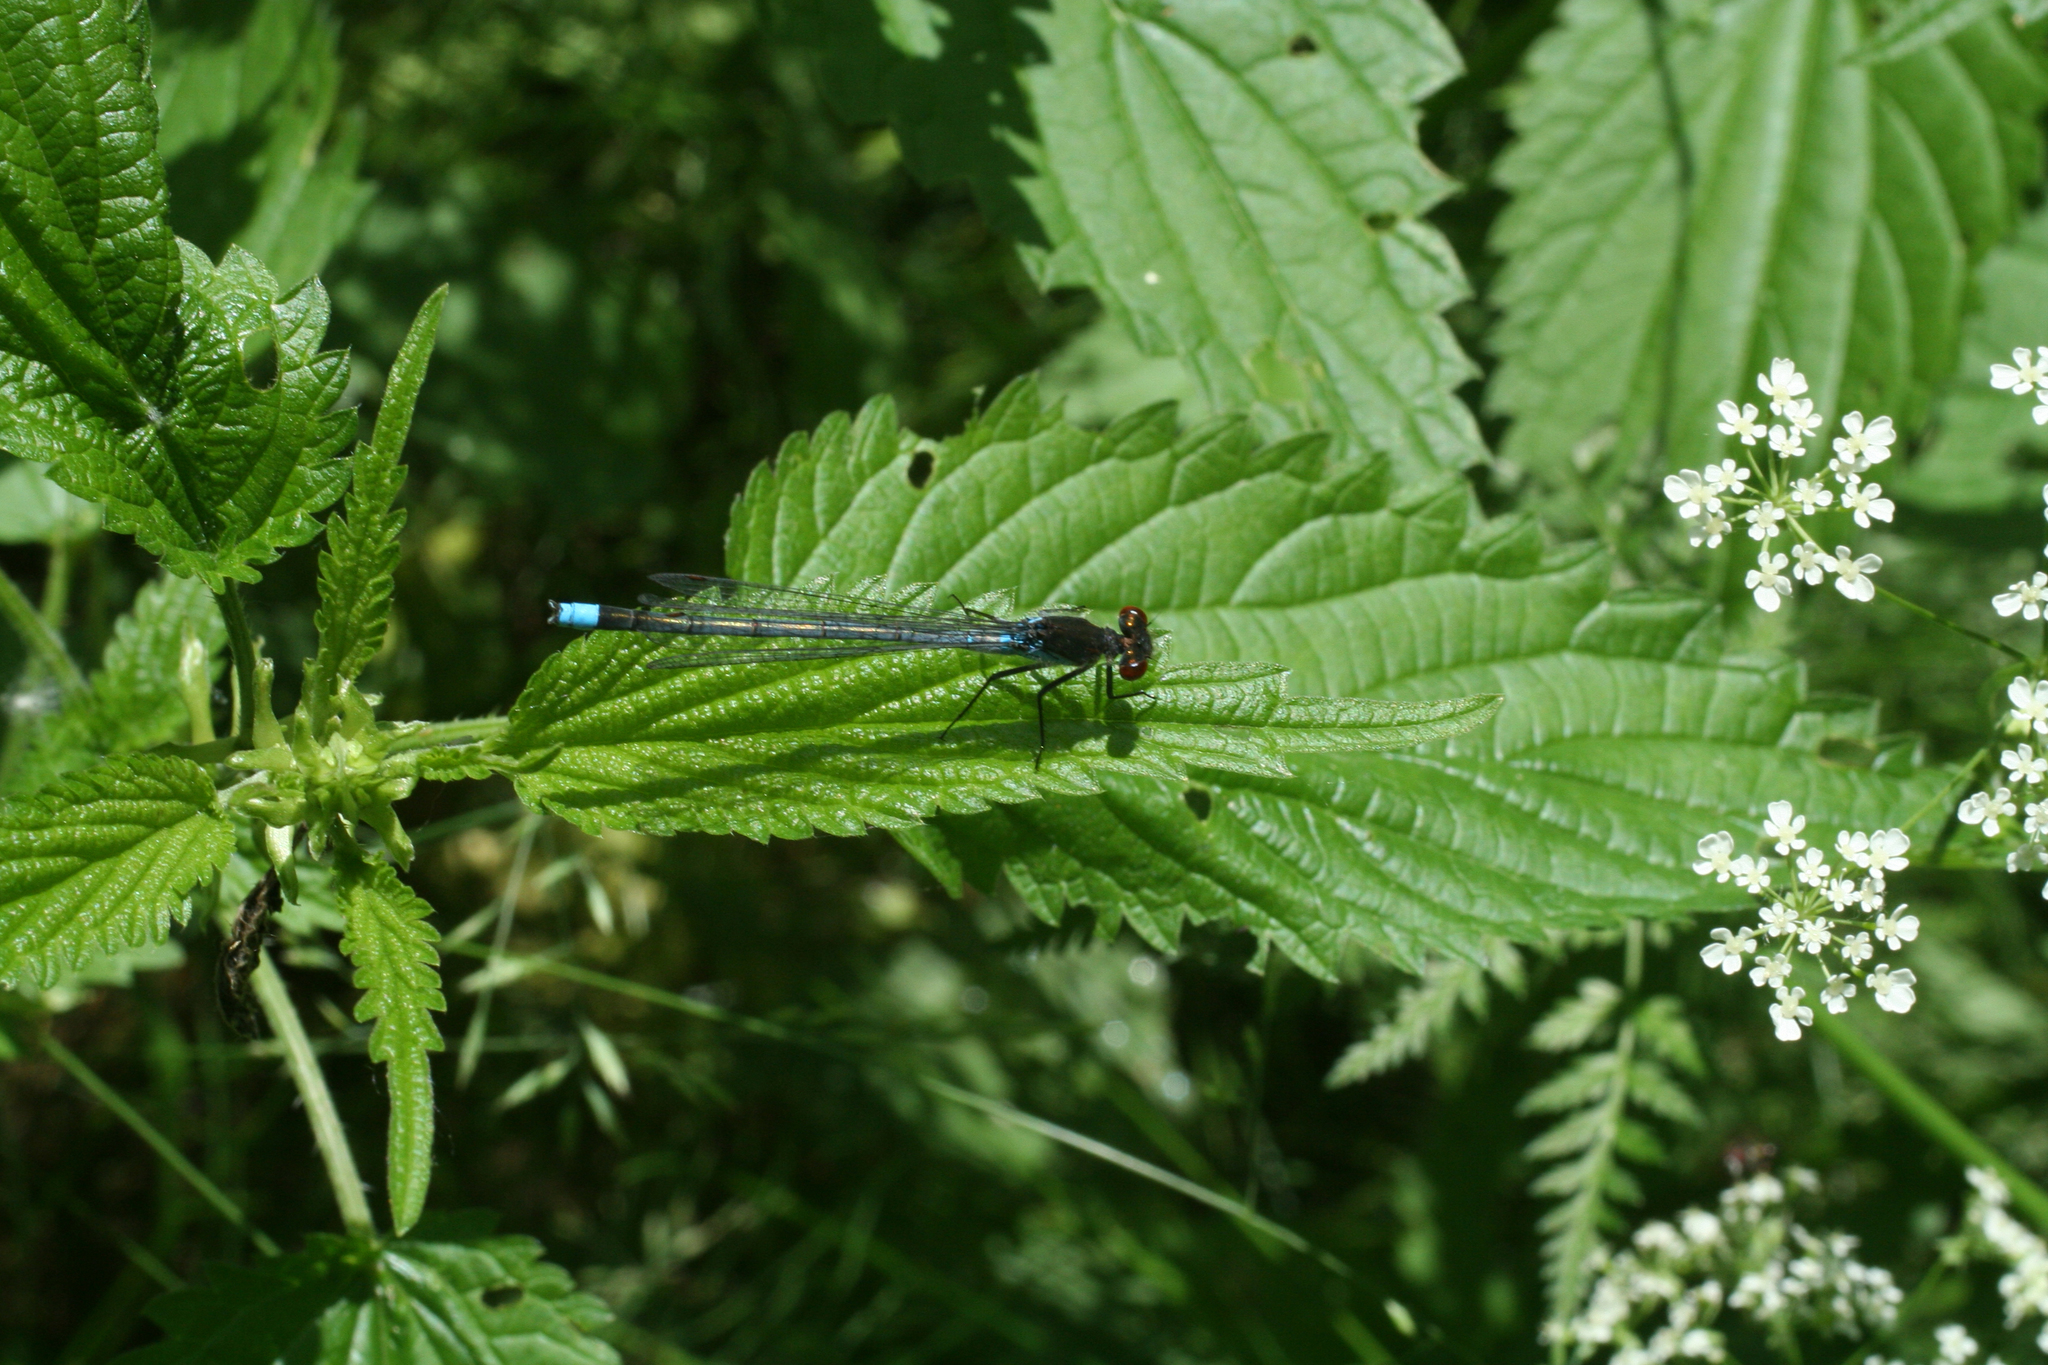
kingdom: Plantae
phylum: Tracheophyta
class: Magnoliopsida
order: Rosales
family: Urticaceae
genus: Urtica
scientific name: Urtica dioica
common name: Common nettle
